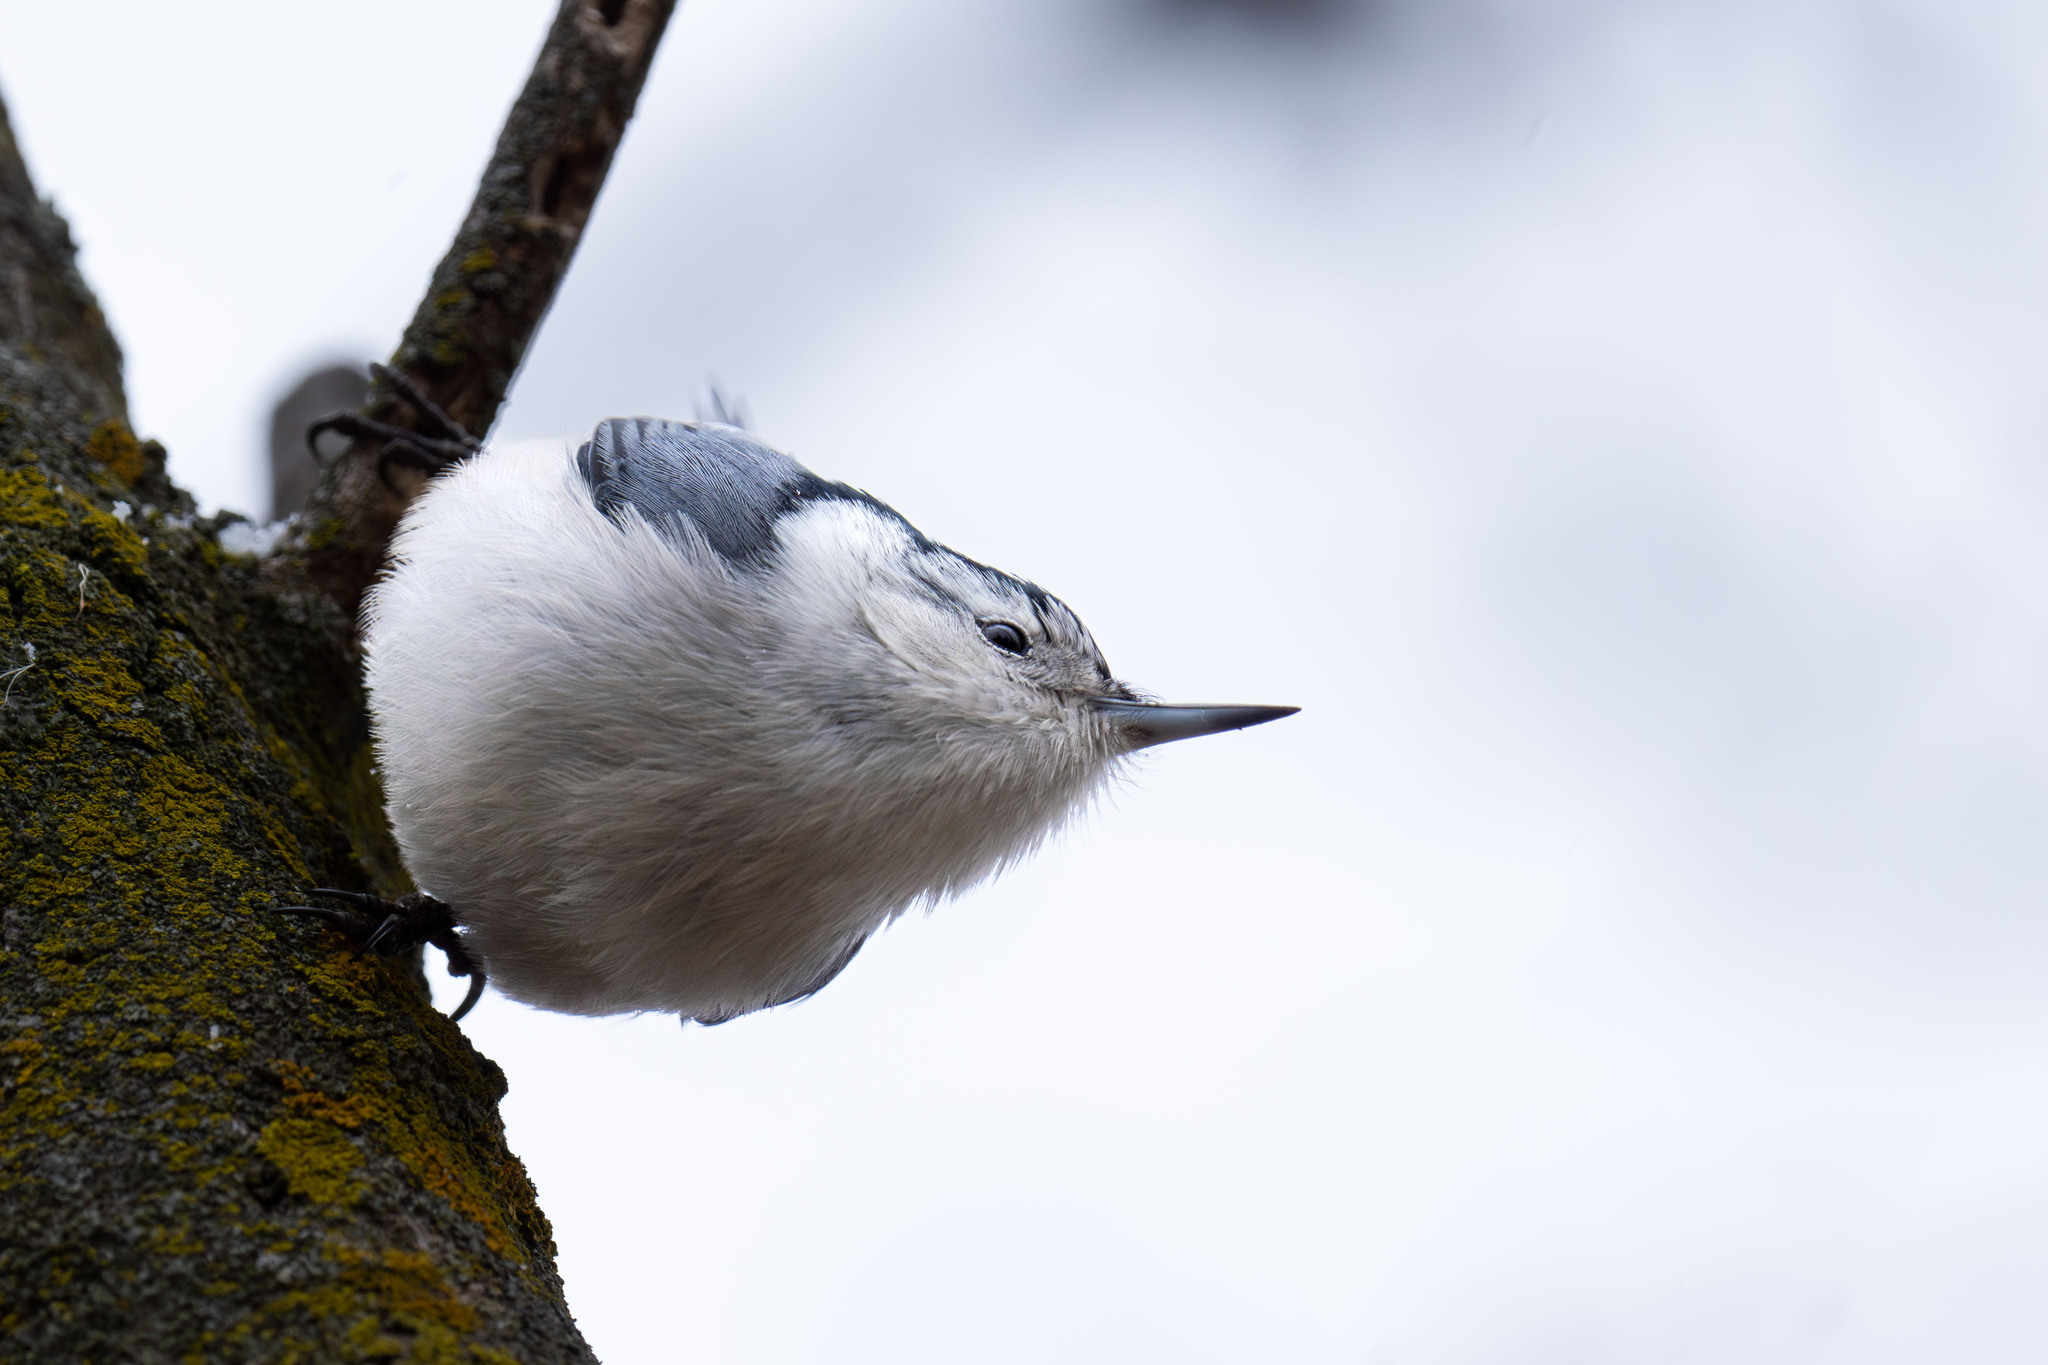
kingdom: Animalia
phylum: Chordata
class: Aves
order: Passeriformes
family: Sittidae
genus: Sitta
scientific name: Sitta carolinensis
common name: White-breasted nuthatch
